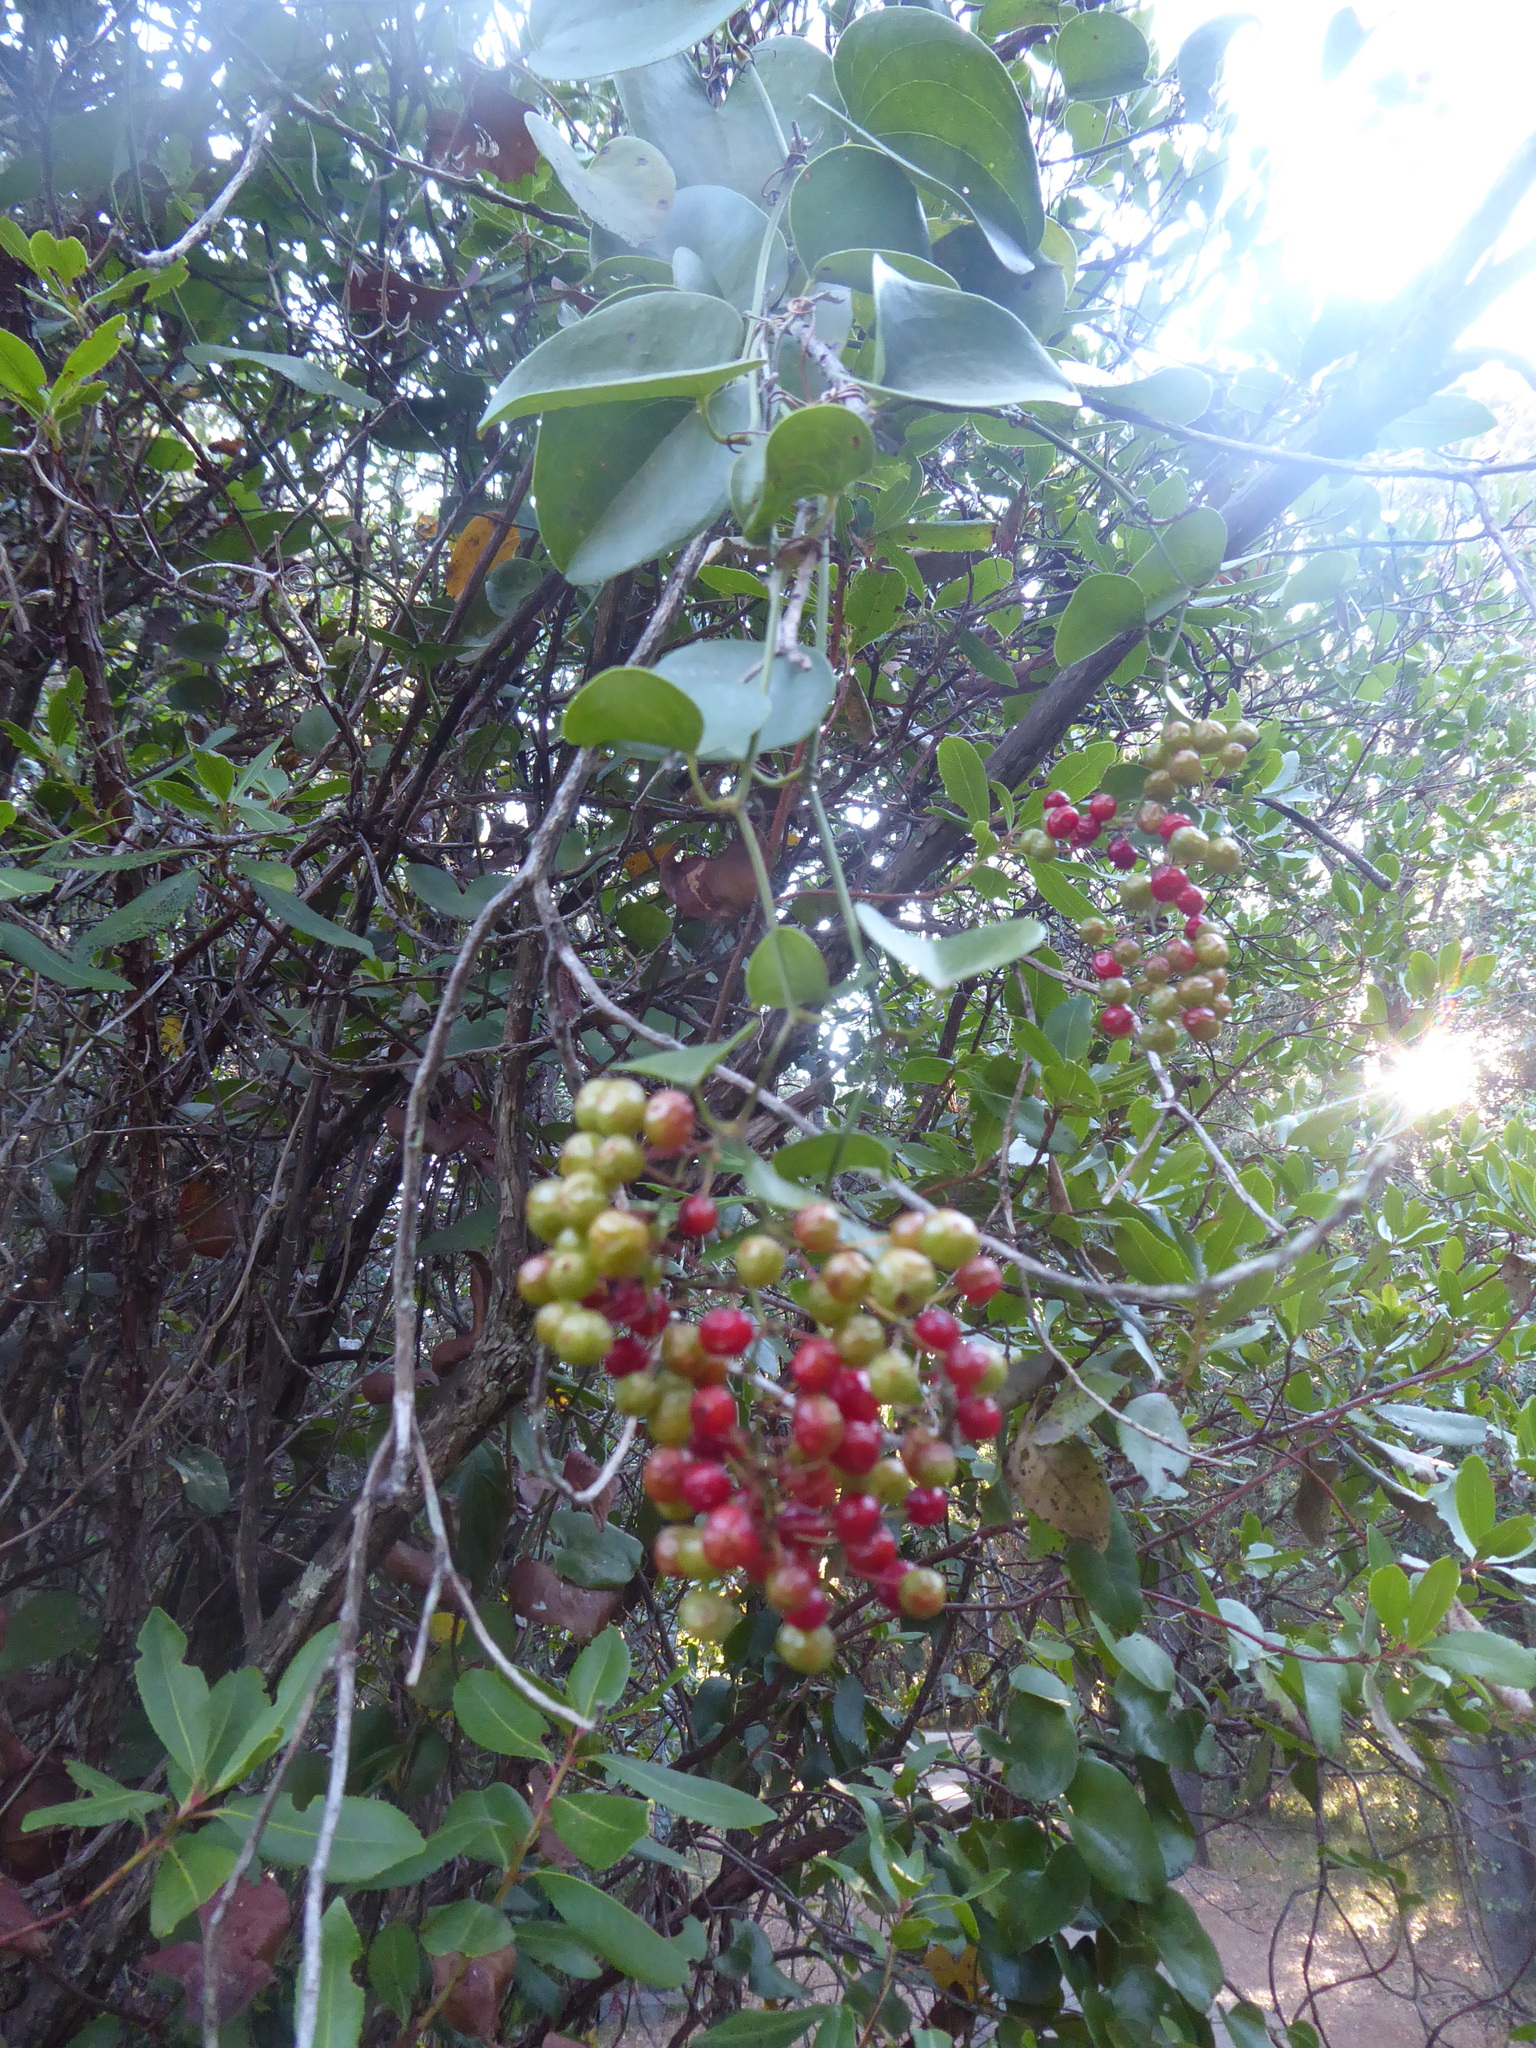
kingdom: Plantae
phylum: Tracheophyta
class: Liliopsida
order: Liliales
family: Smilacaceae
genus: Smilax
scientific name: Smilax aspera
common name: Common smilax
